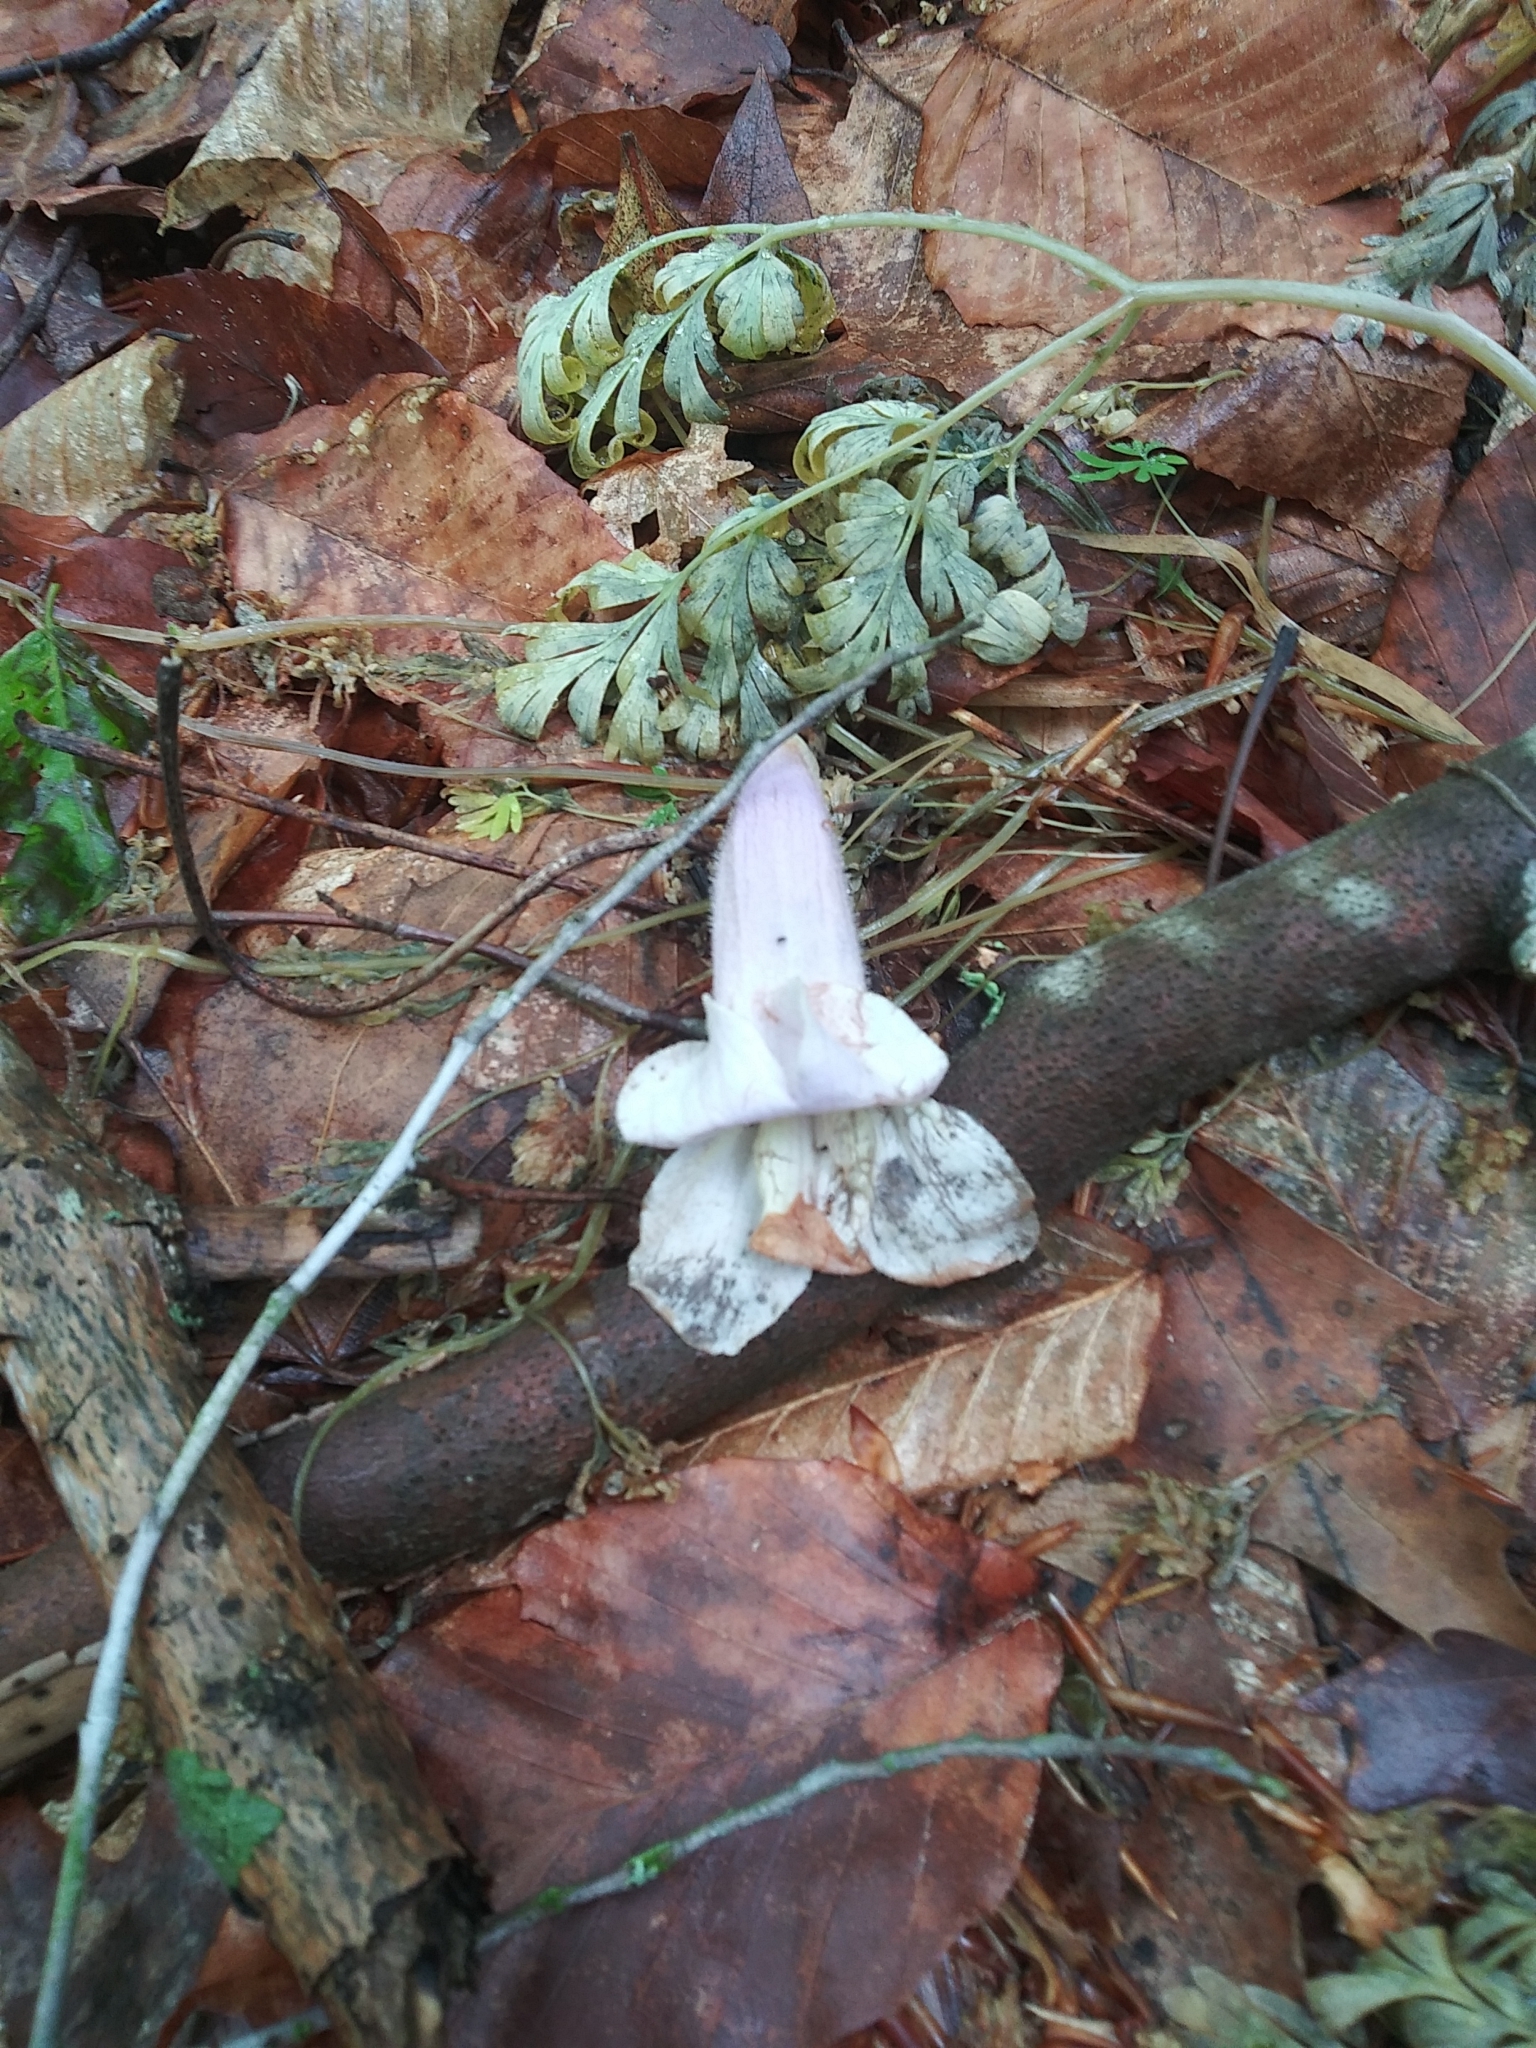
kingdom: Plantae
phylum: Tracheophyta
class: Magnoliopsida
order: Lamiales
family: Paulowniaceae
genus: Paulownia
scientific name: Paulownia tomentosa
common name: Foxglove-tree
